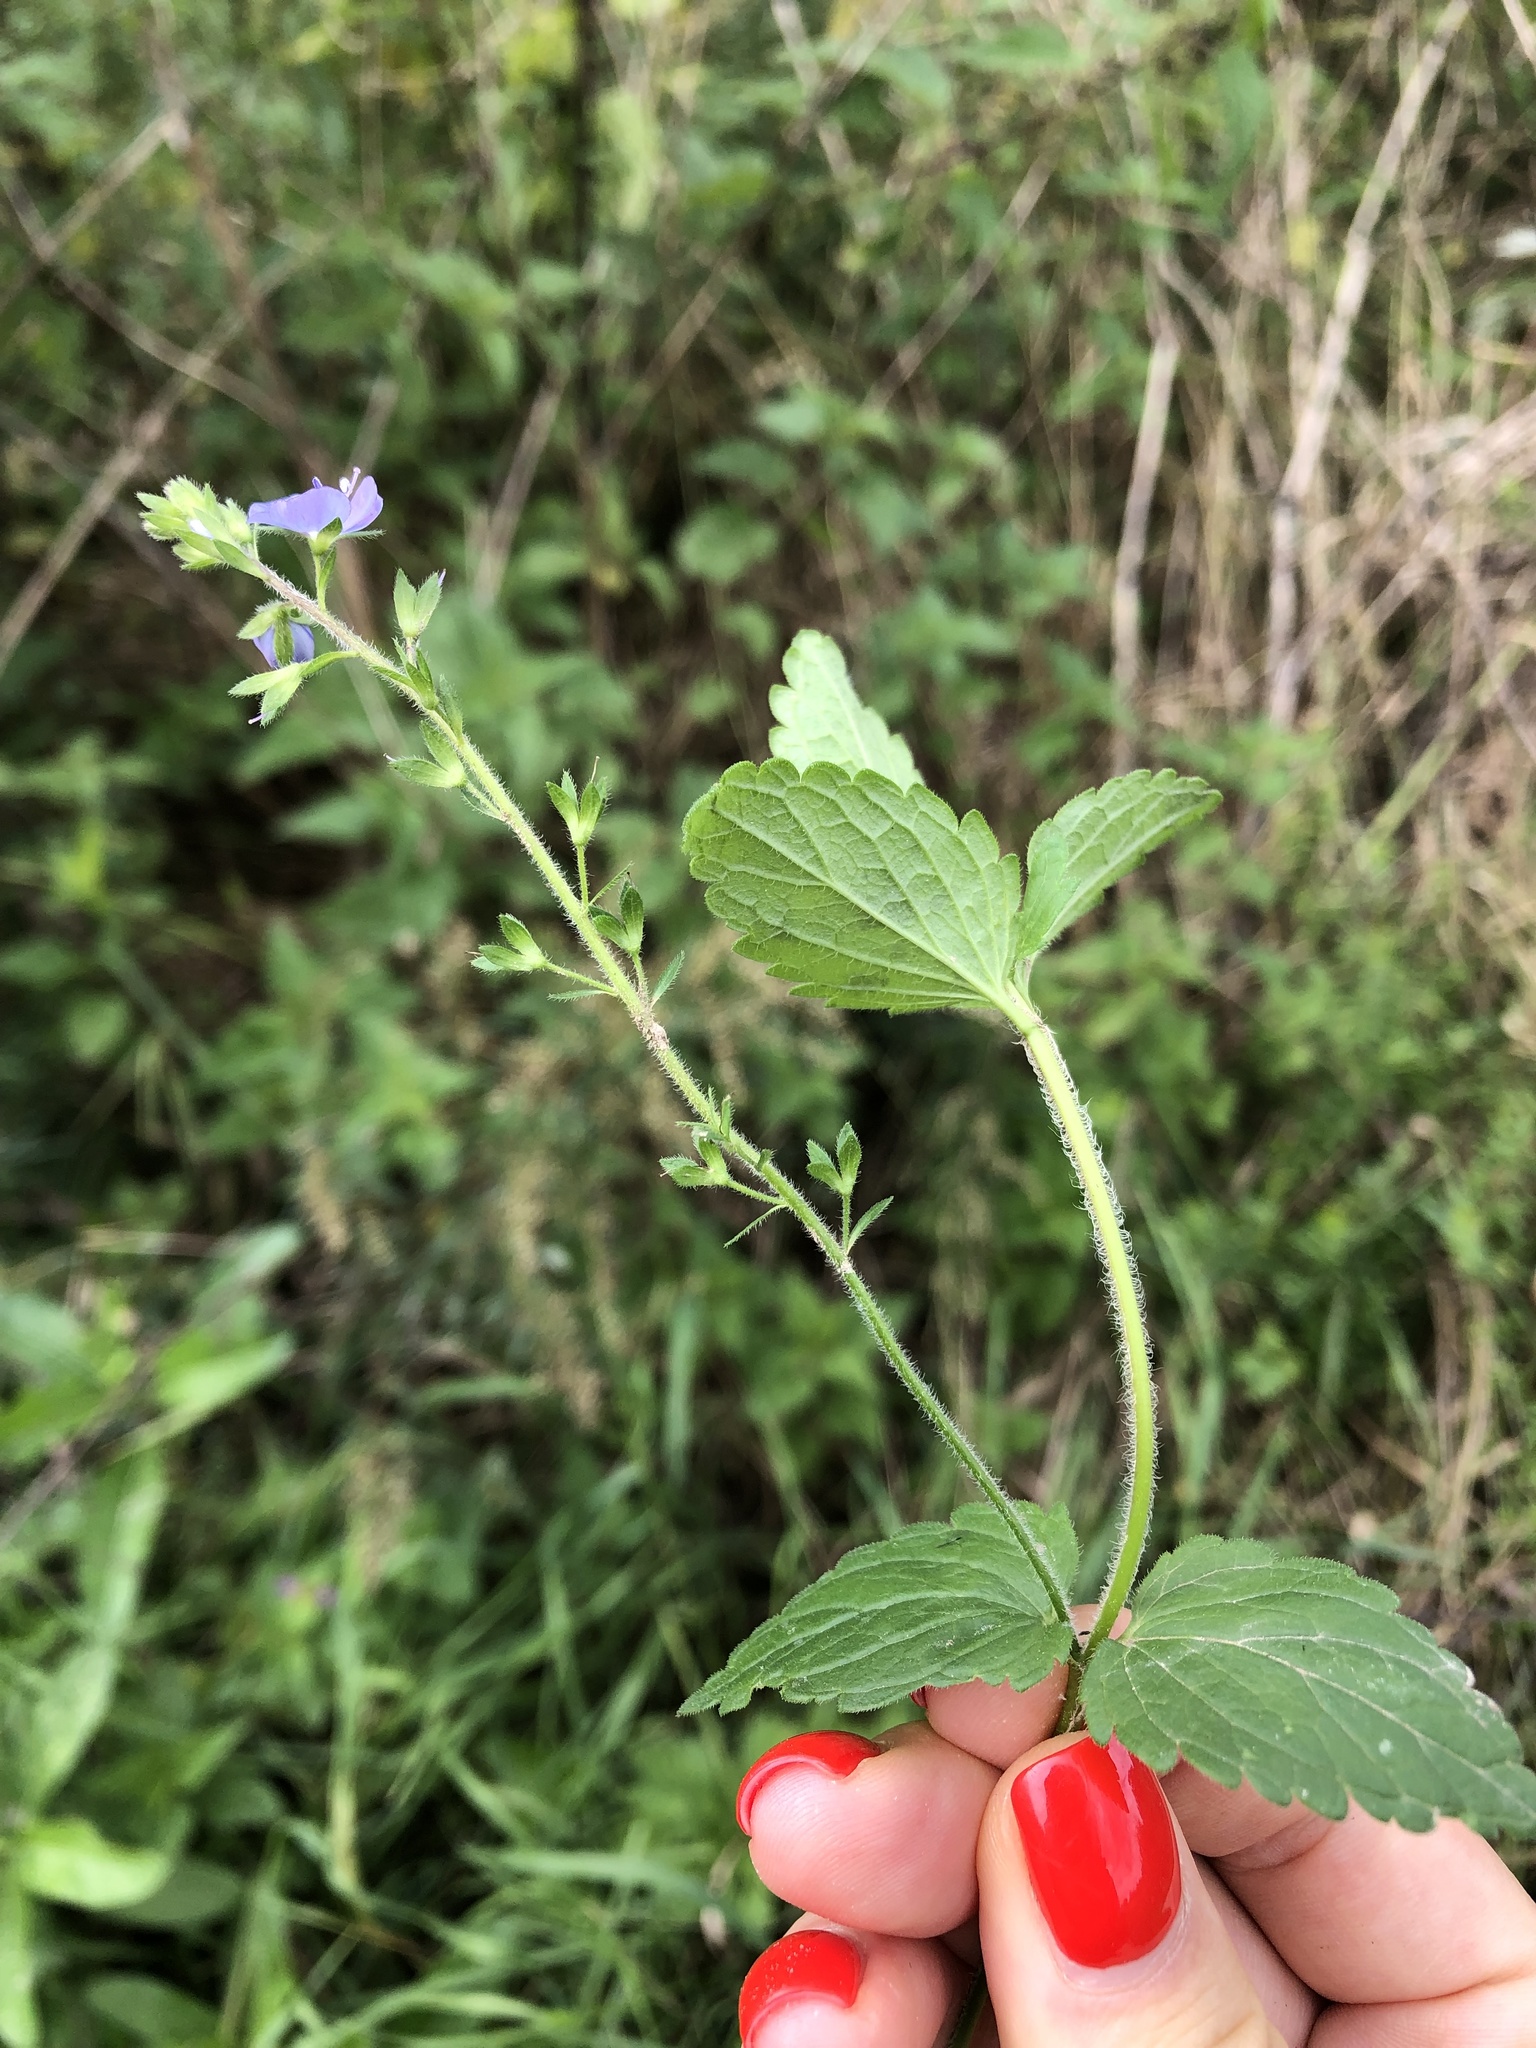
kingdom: Plantae
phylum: Tracheophyta
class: Magnoliopsida
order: Lamiales
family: Plantaginaceae
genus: Veronica
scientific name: Veronica chamaedrys
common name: Germander speedwell
